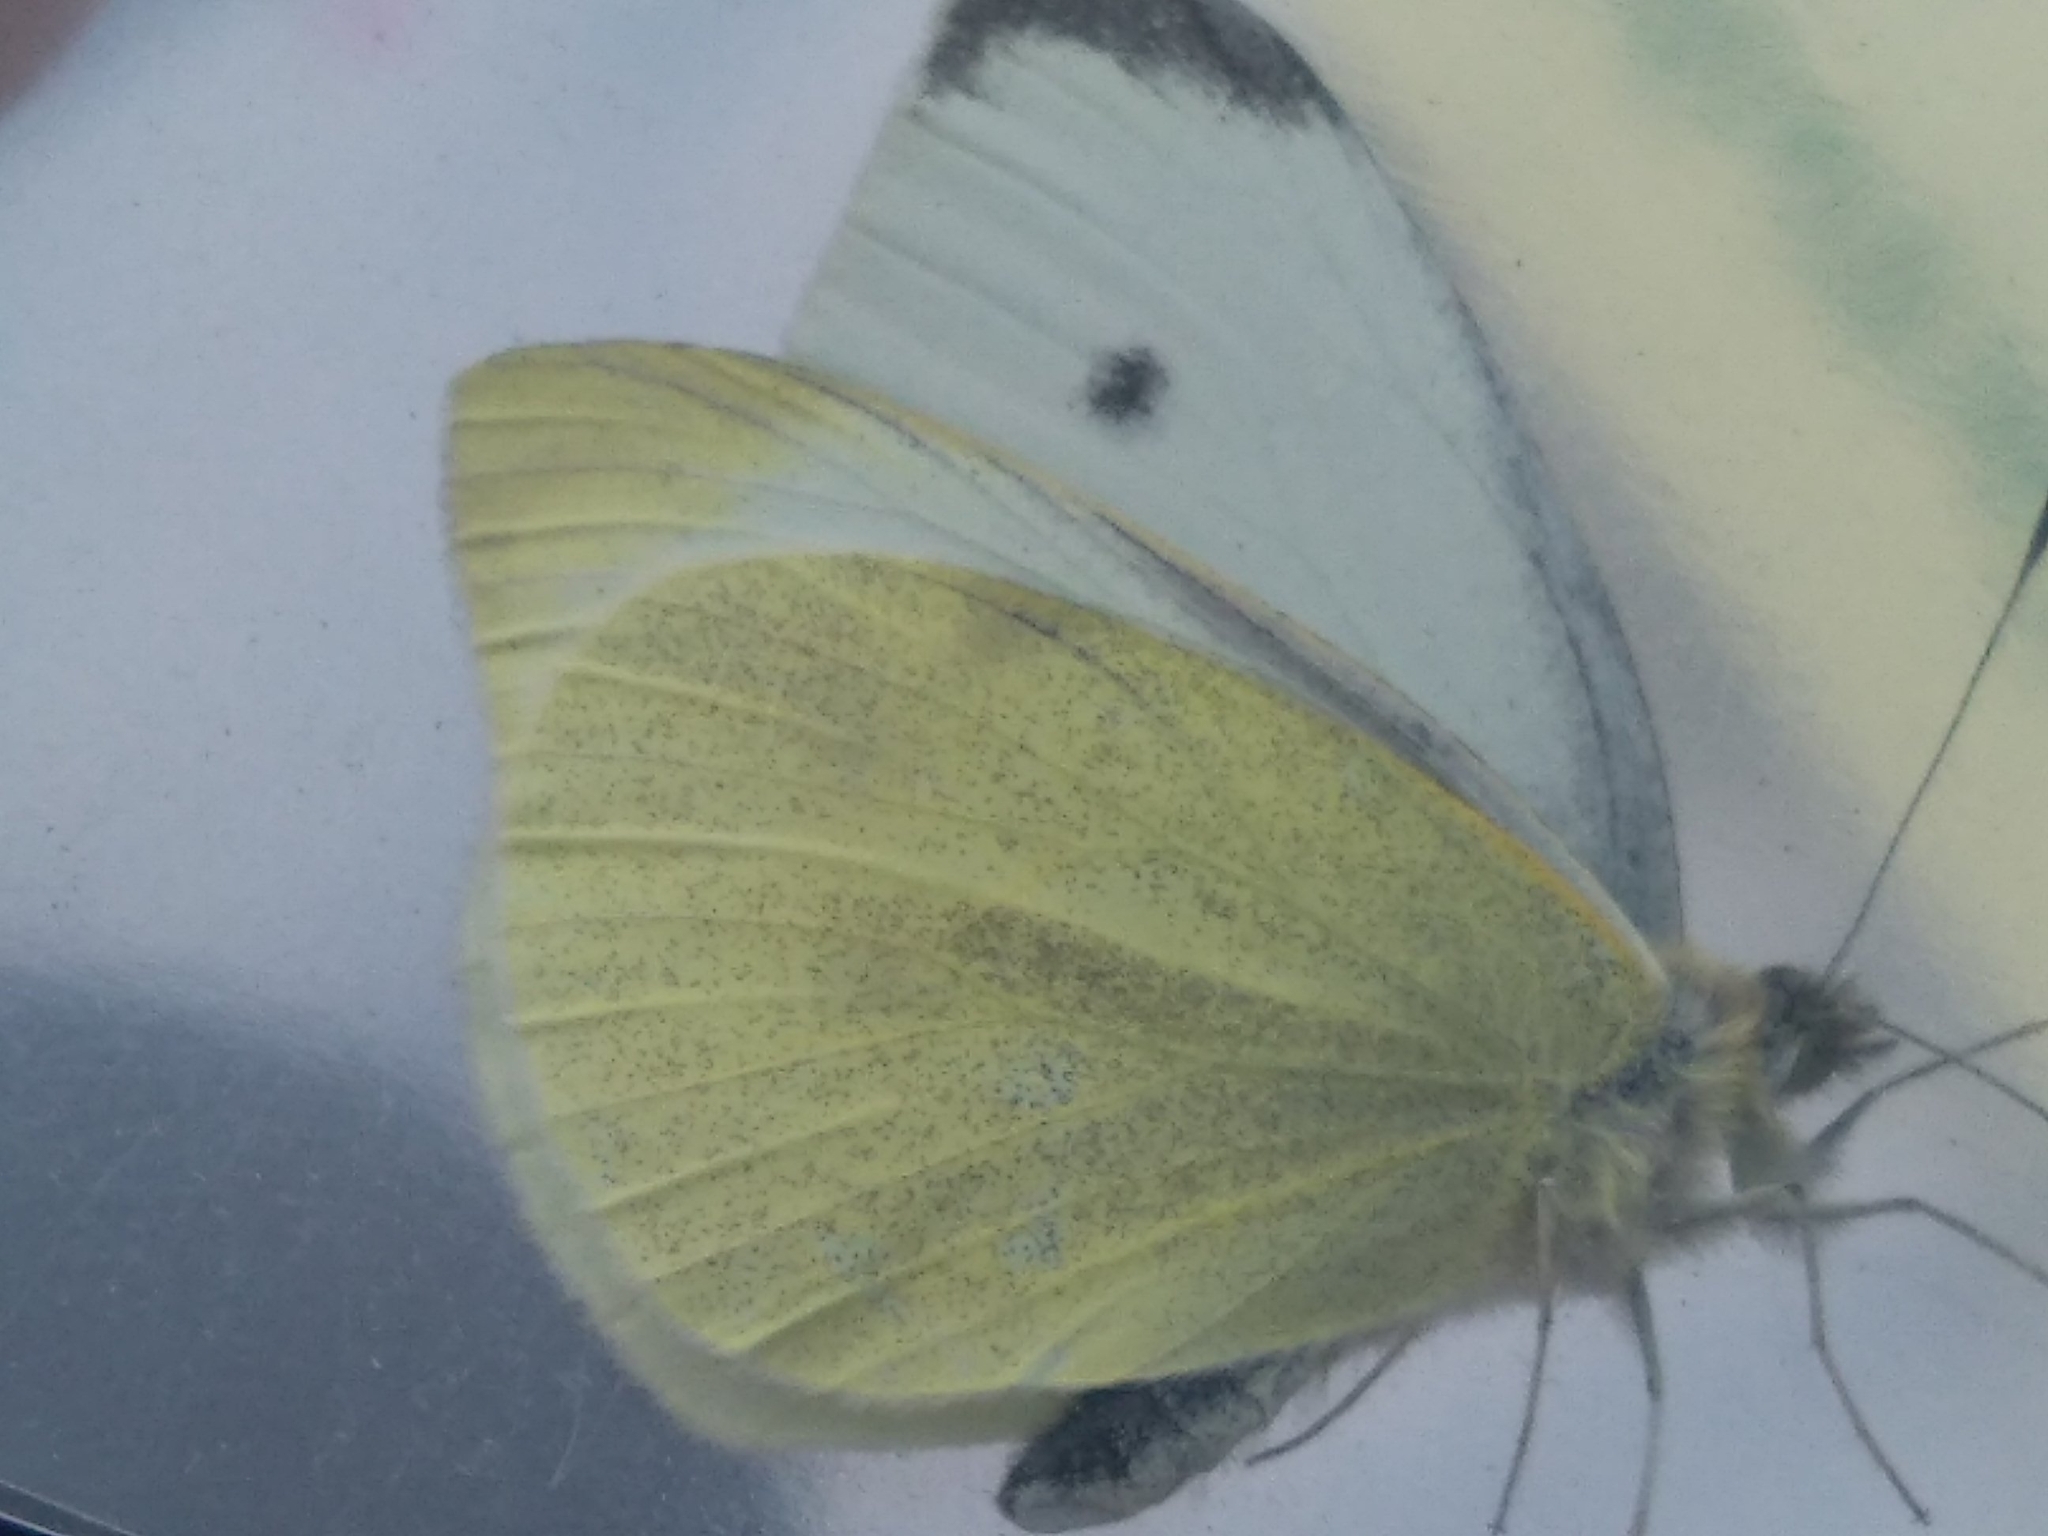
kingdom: Animalia
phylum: Arthropoda
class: Insecta
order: Lepidoptera
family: Pieridae
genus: Pieris
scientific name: Pieris rapae
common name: Small white
